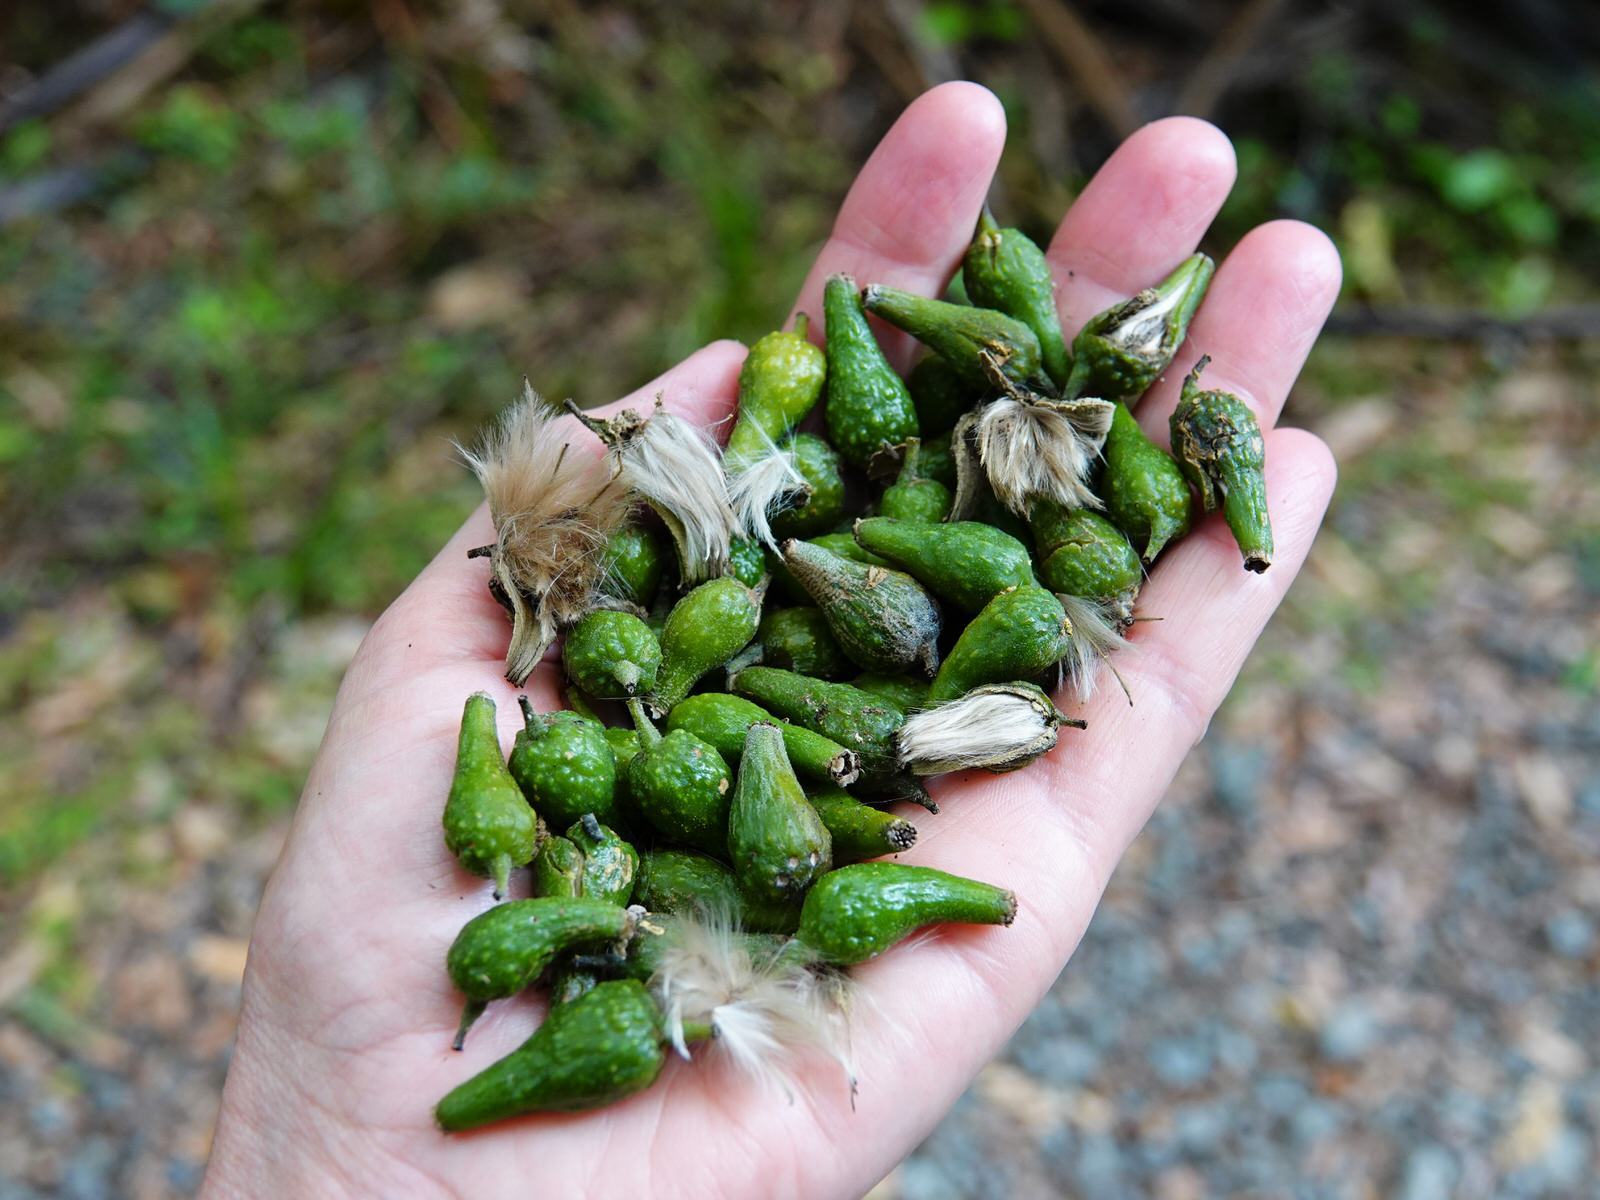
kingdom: Plantae
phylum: Tracheophyta
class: Magnoliopsida
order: Laurales
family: Atherospermataceae
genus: Laurelia
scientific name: Laurelia novae-zelandiae
